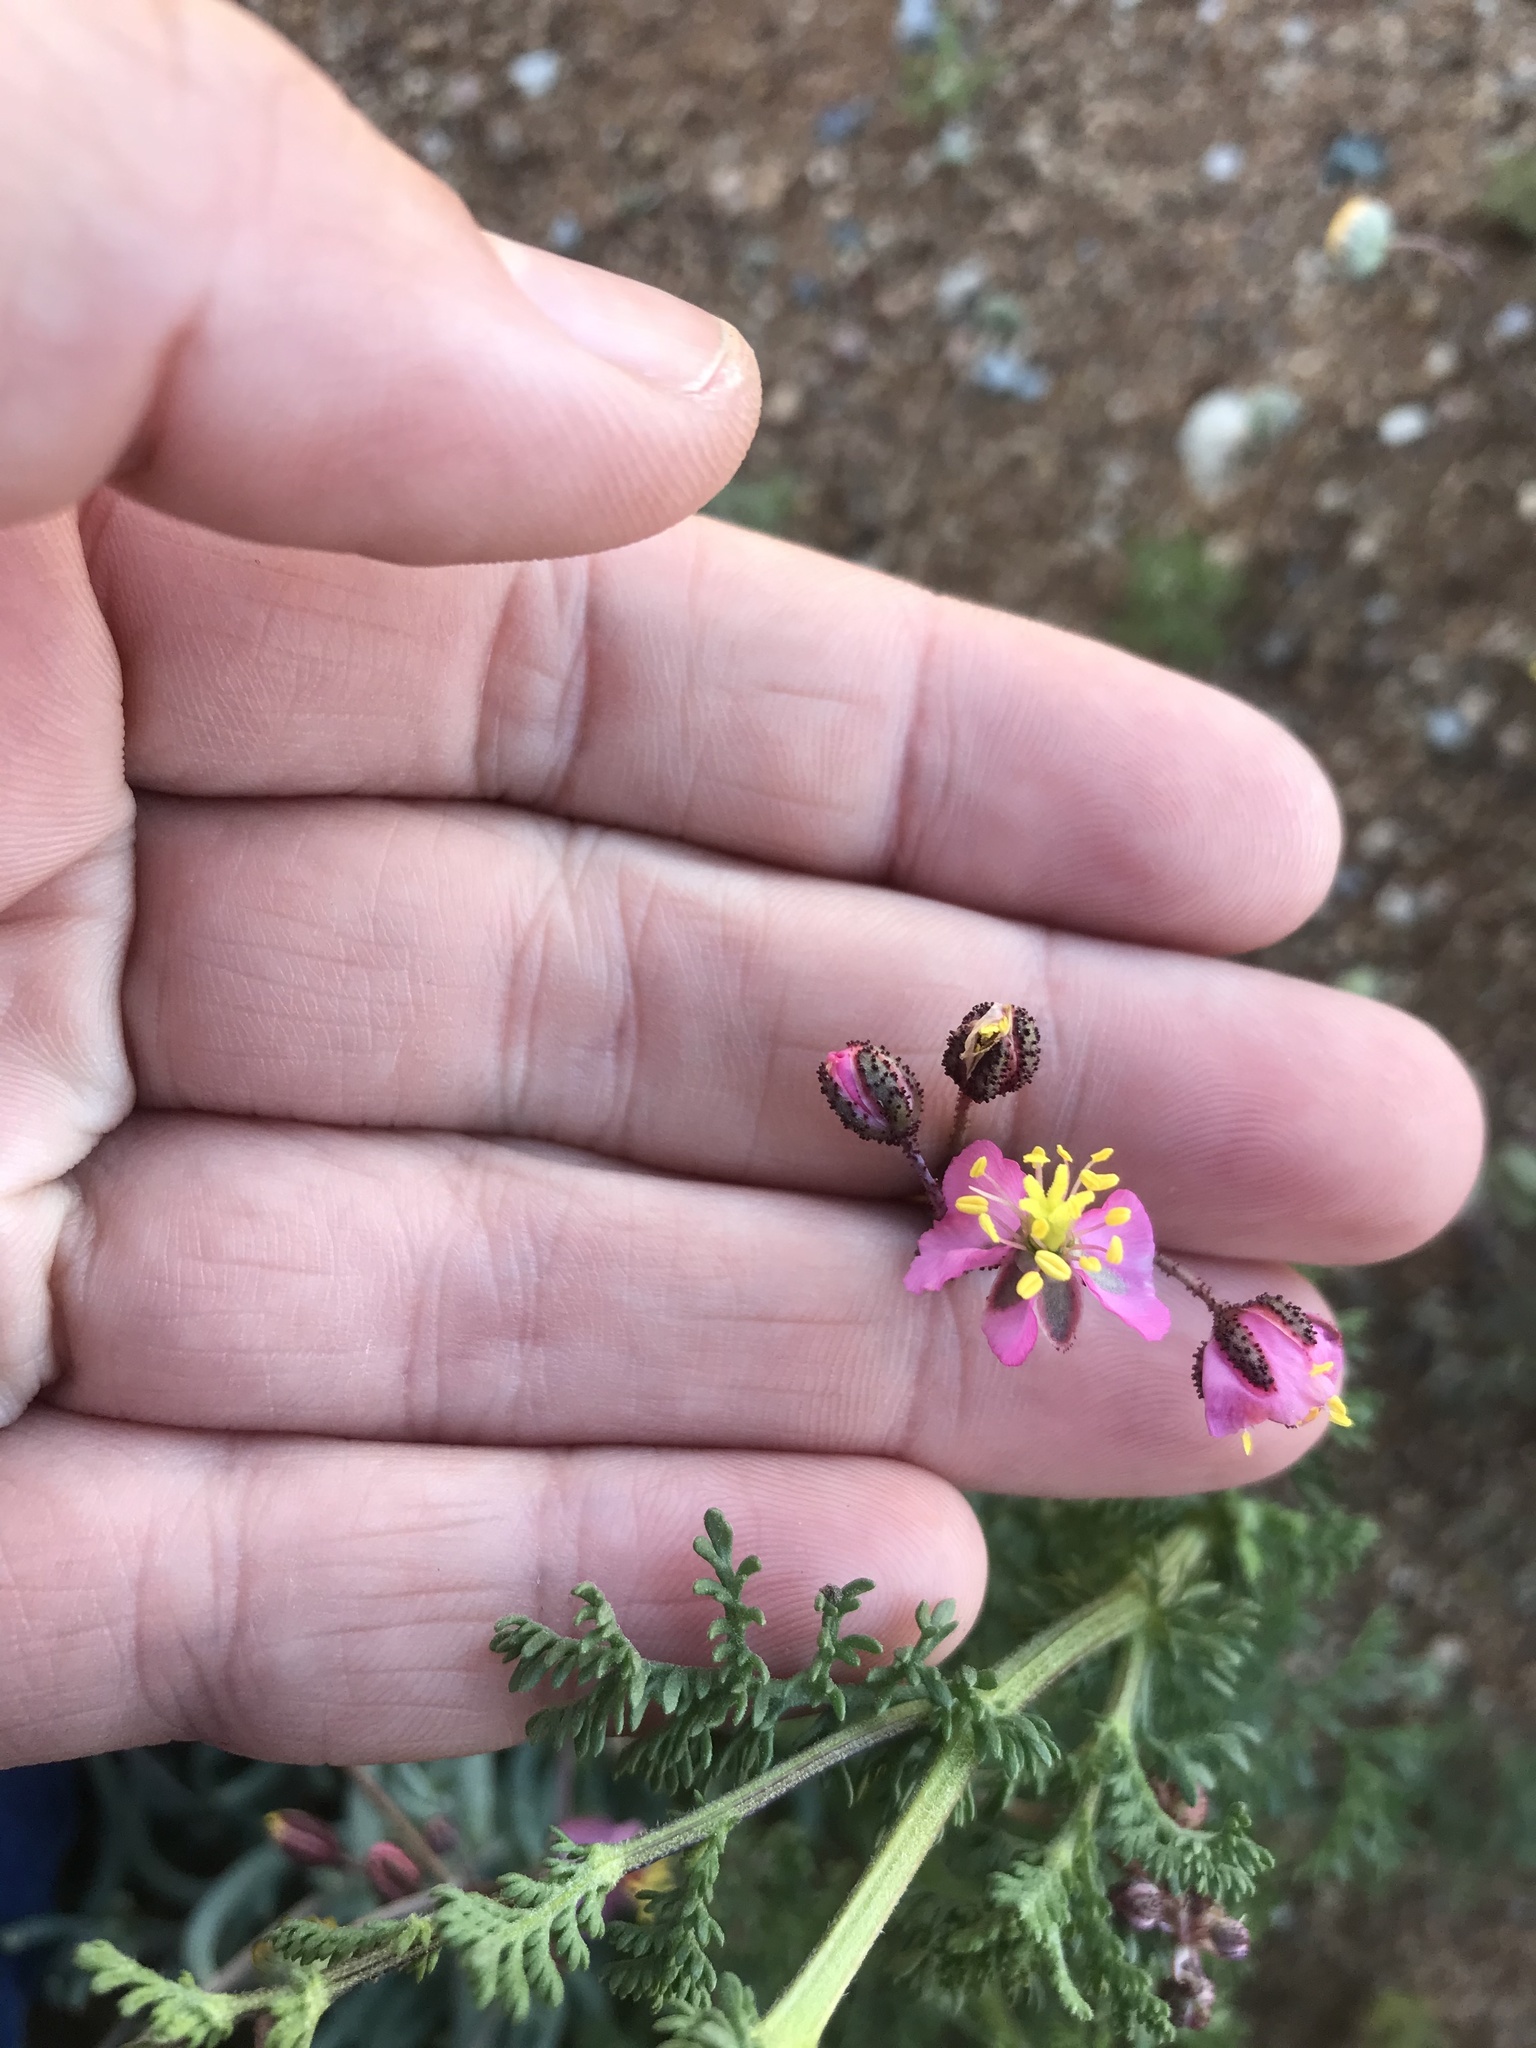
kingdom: Plantae
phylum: Tracheophyta
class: Magnoliopsida
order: Caryophyllales
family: Kewaceae
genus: Kewa
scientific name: Kewa salsoloides
